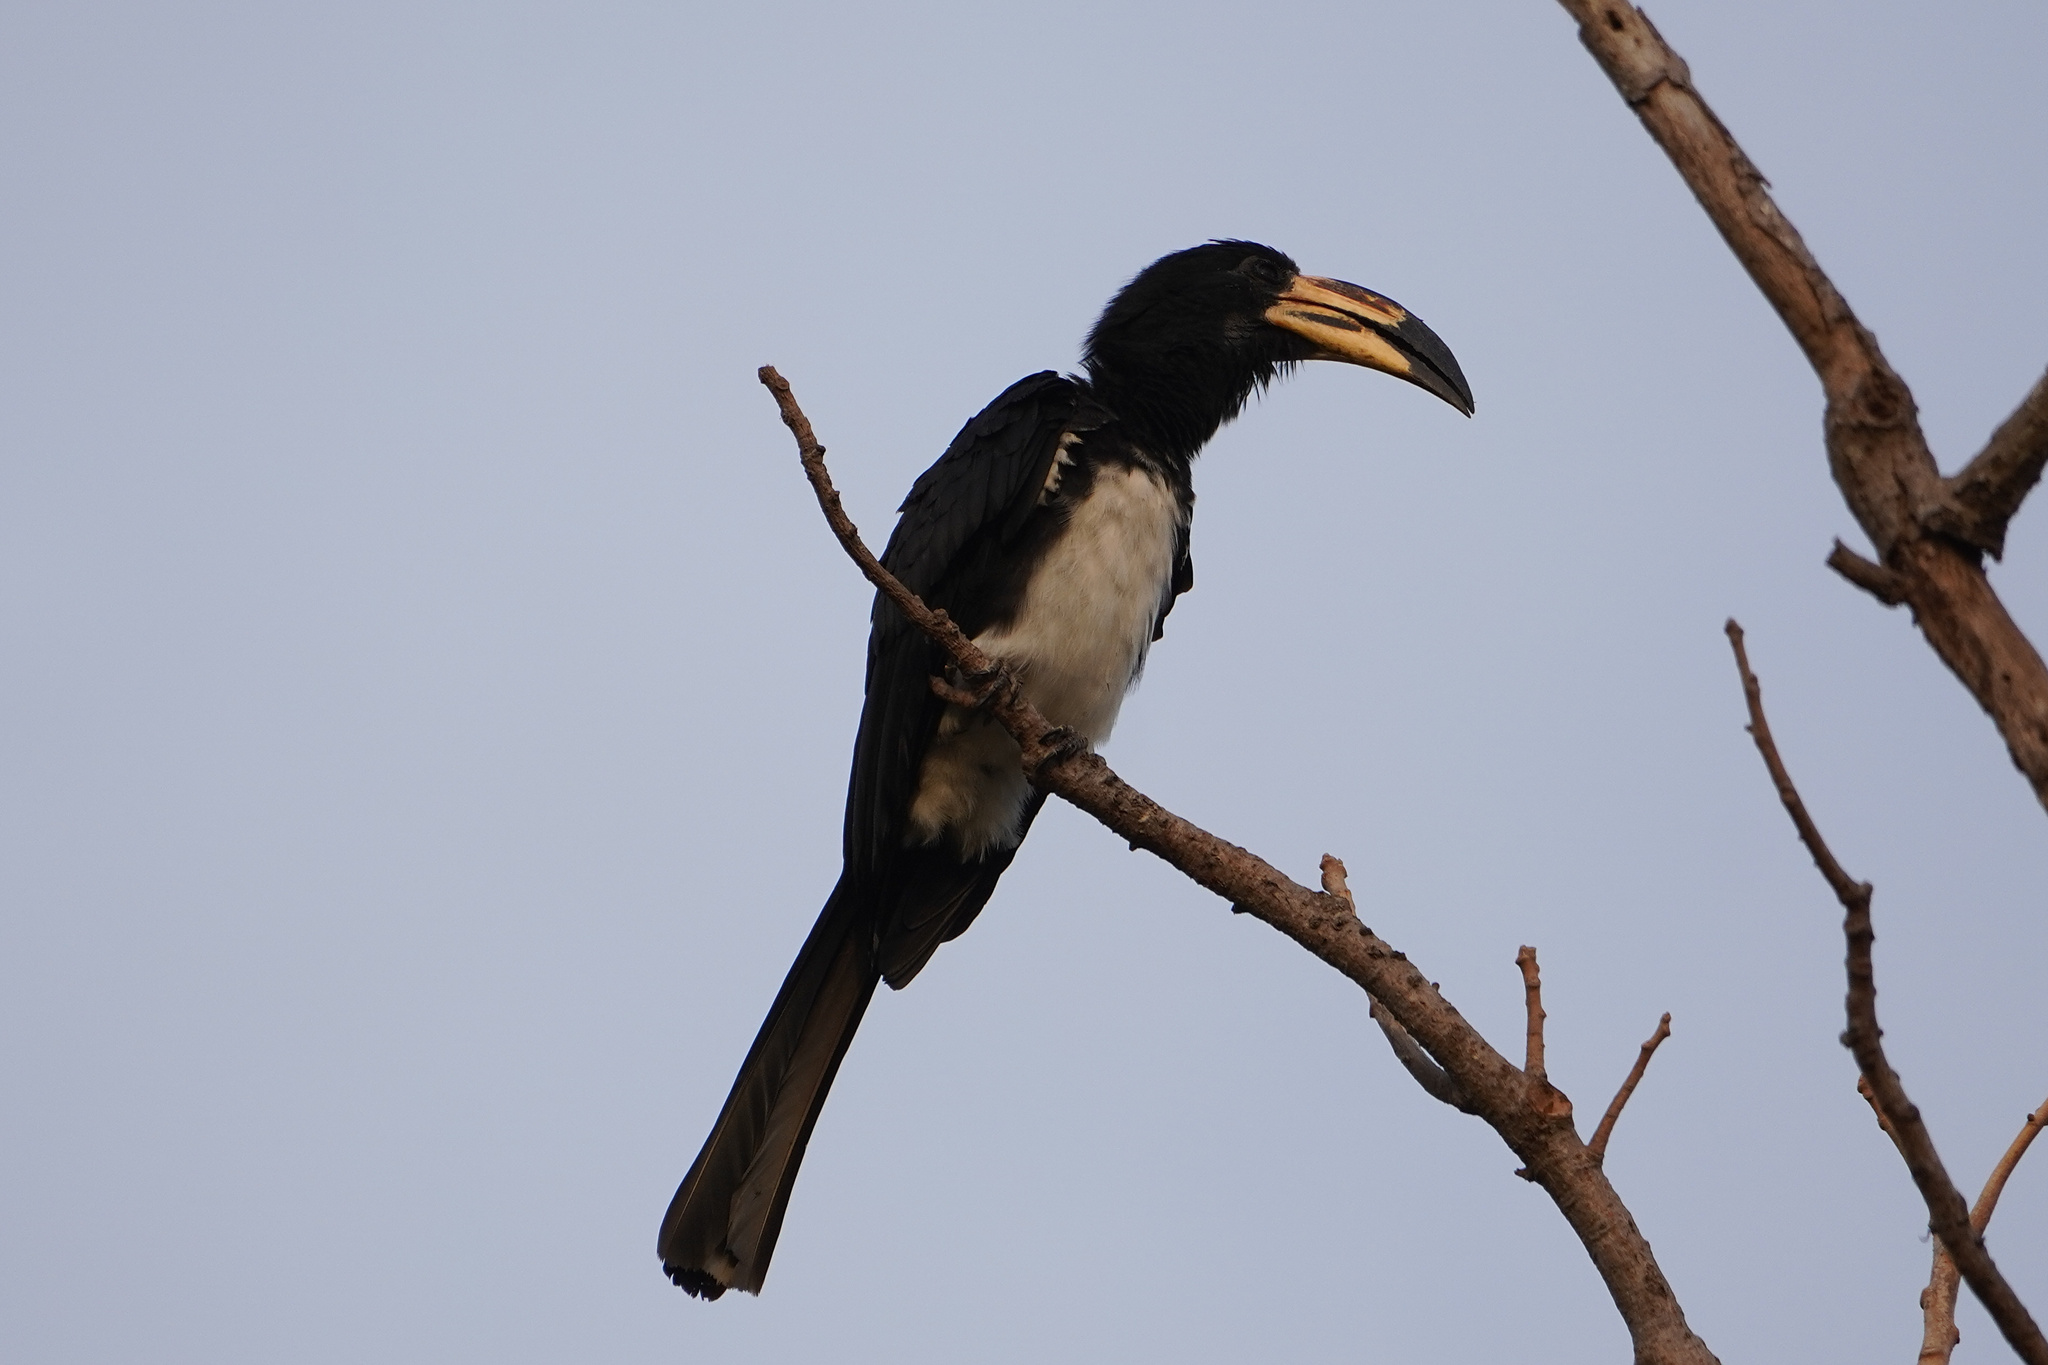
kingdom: Animalia
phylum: Chordata
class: Aves
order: Bucerotiformes
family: Bucerotidae
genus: Lophoceros
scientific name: Lophoceros fasciatus
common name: African pied hornbill
